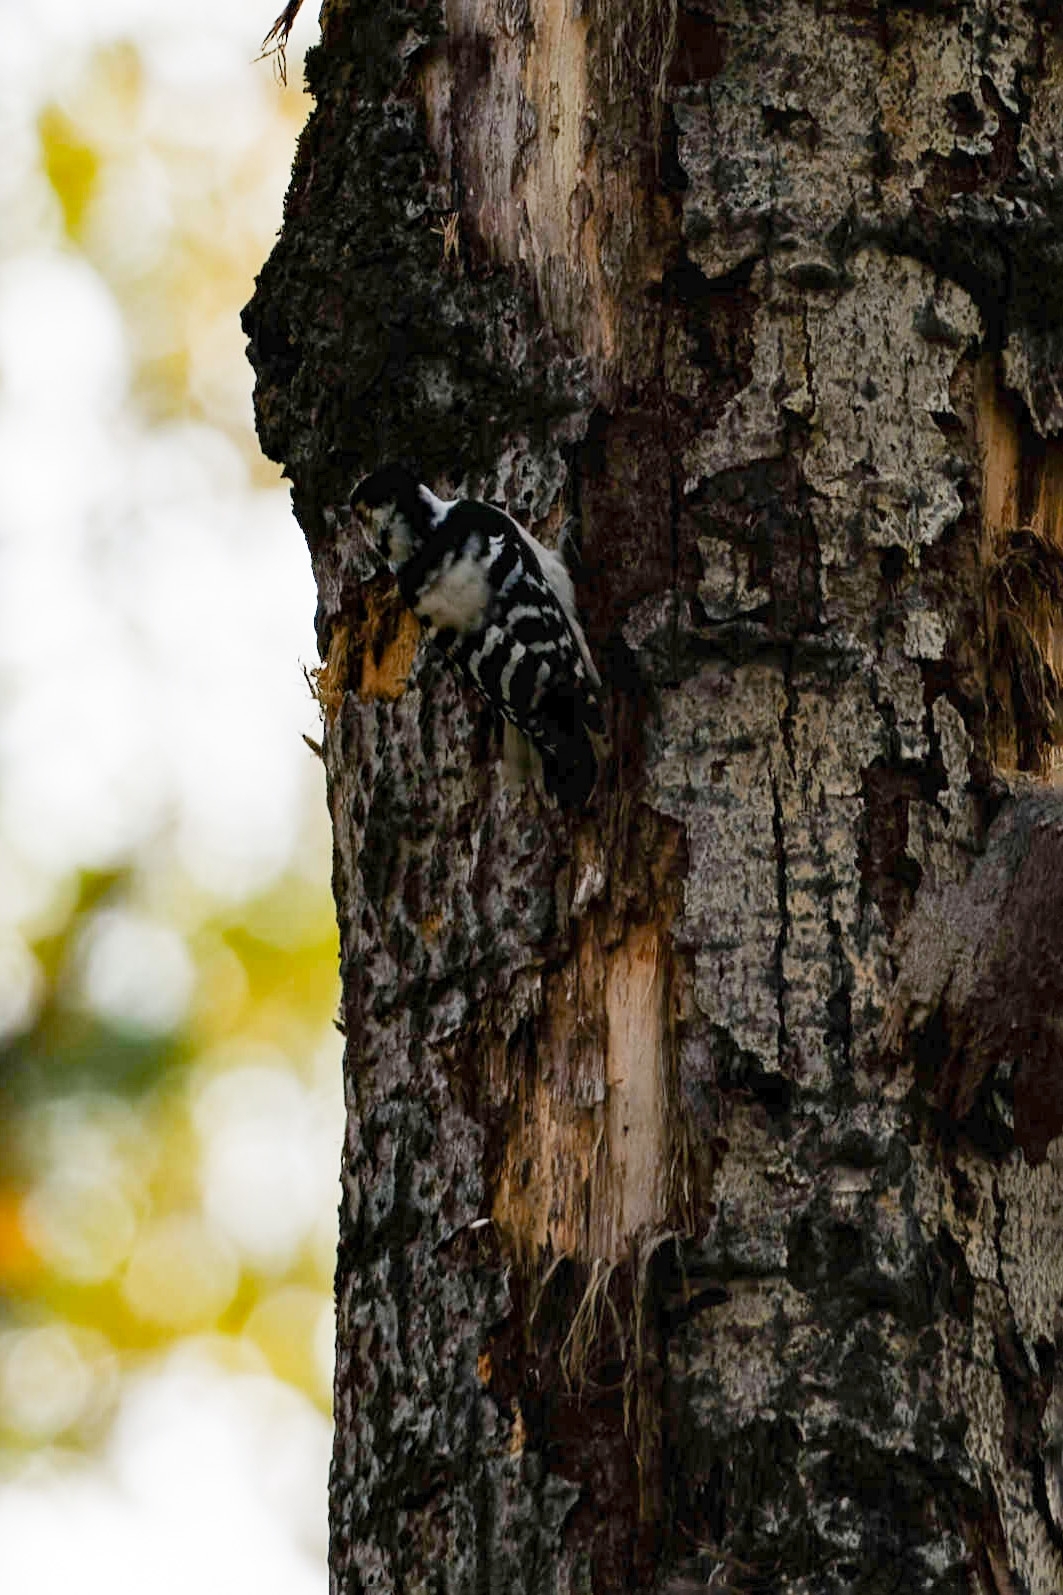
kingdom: Animalia
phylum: Chordata
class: Aves
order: Piciformes
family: Picidae
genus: Dryobates
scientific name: Dryobates minor
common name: Lesser spotted woodpecker
